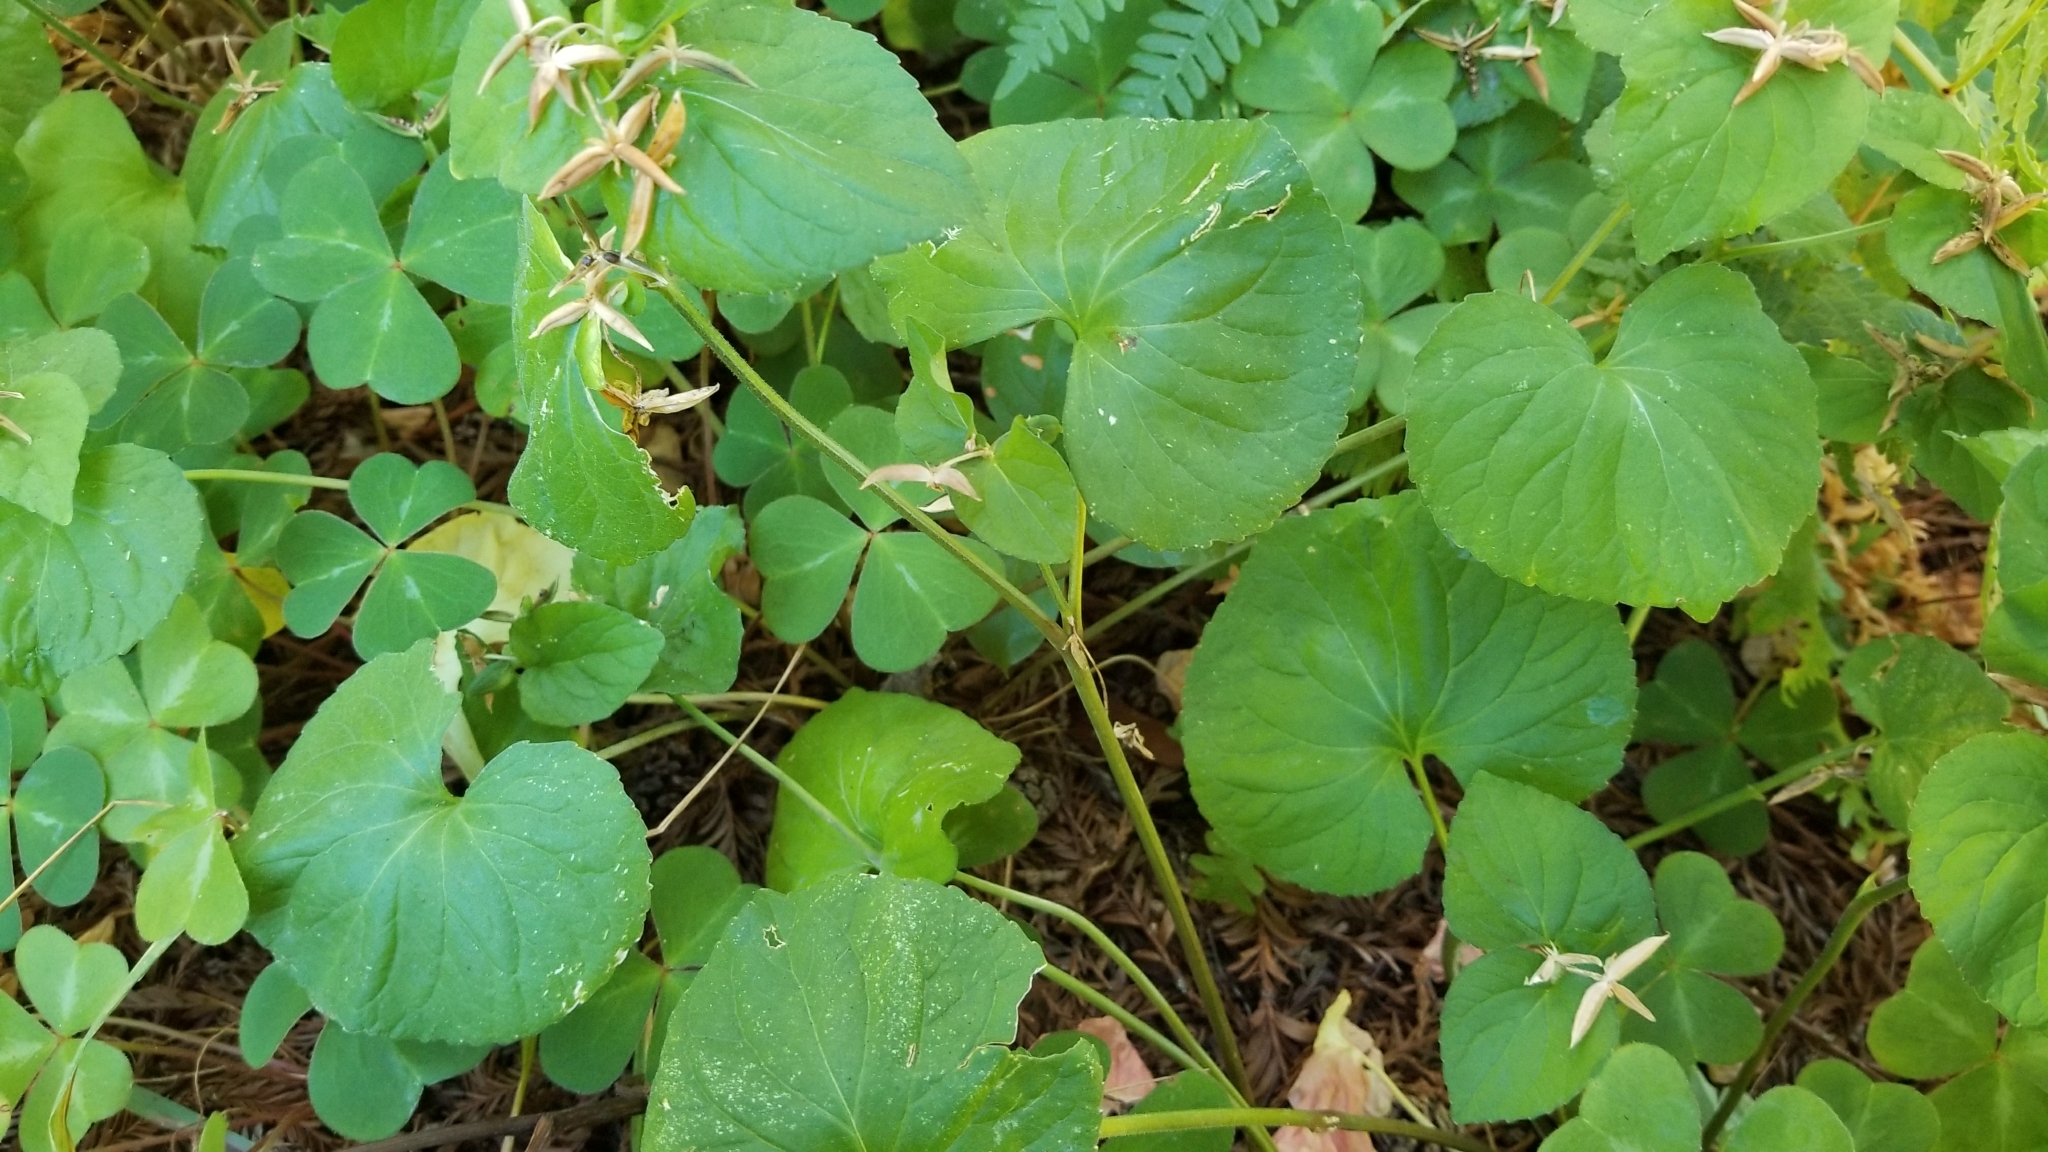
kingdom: Plantae
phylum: Tracheophyta
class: Magnoliopsida
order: Malpighiales
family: Violaceae
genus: Viola
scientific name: Viola glabella
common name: Stream violet
